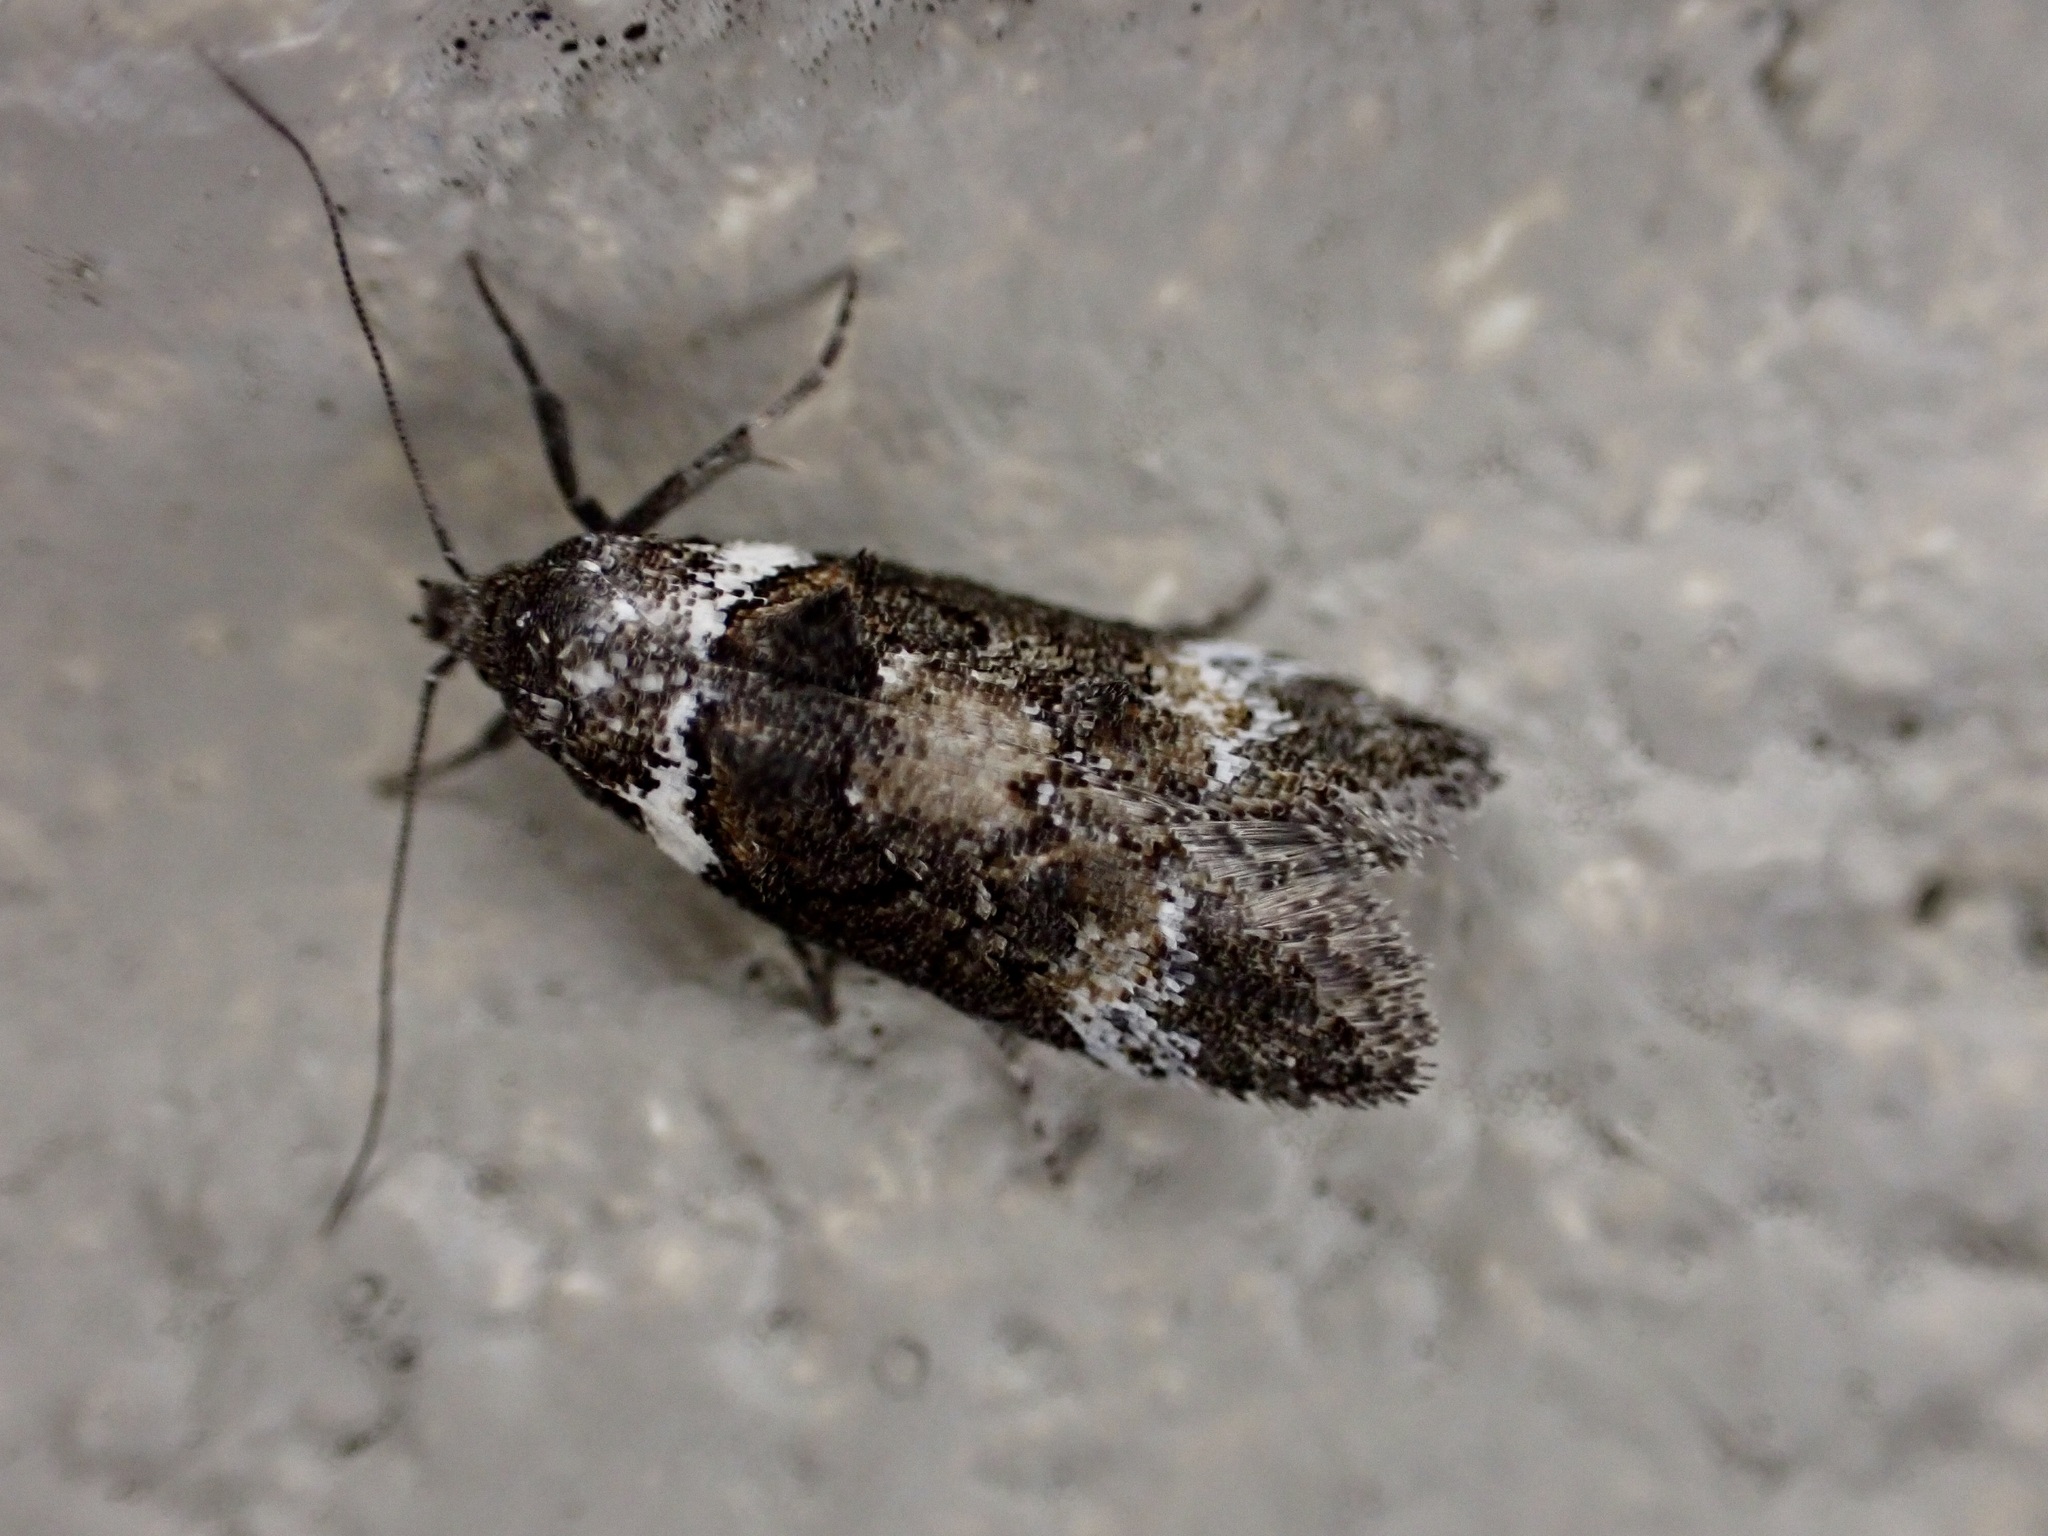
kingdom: Animalia
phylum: Arthropoda
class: Insecta
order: Lepidoptera
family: Oecophoridae
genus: Trachypepla
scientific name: Trachypepla conspicuella
